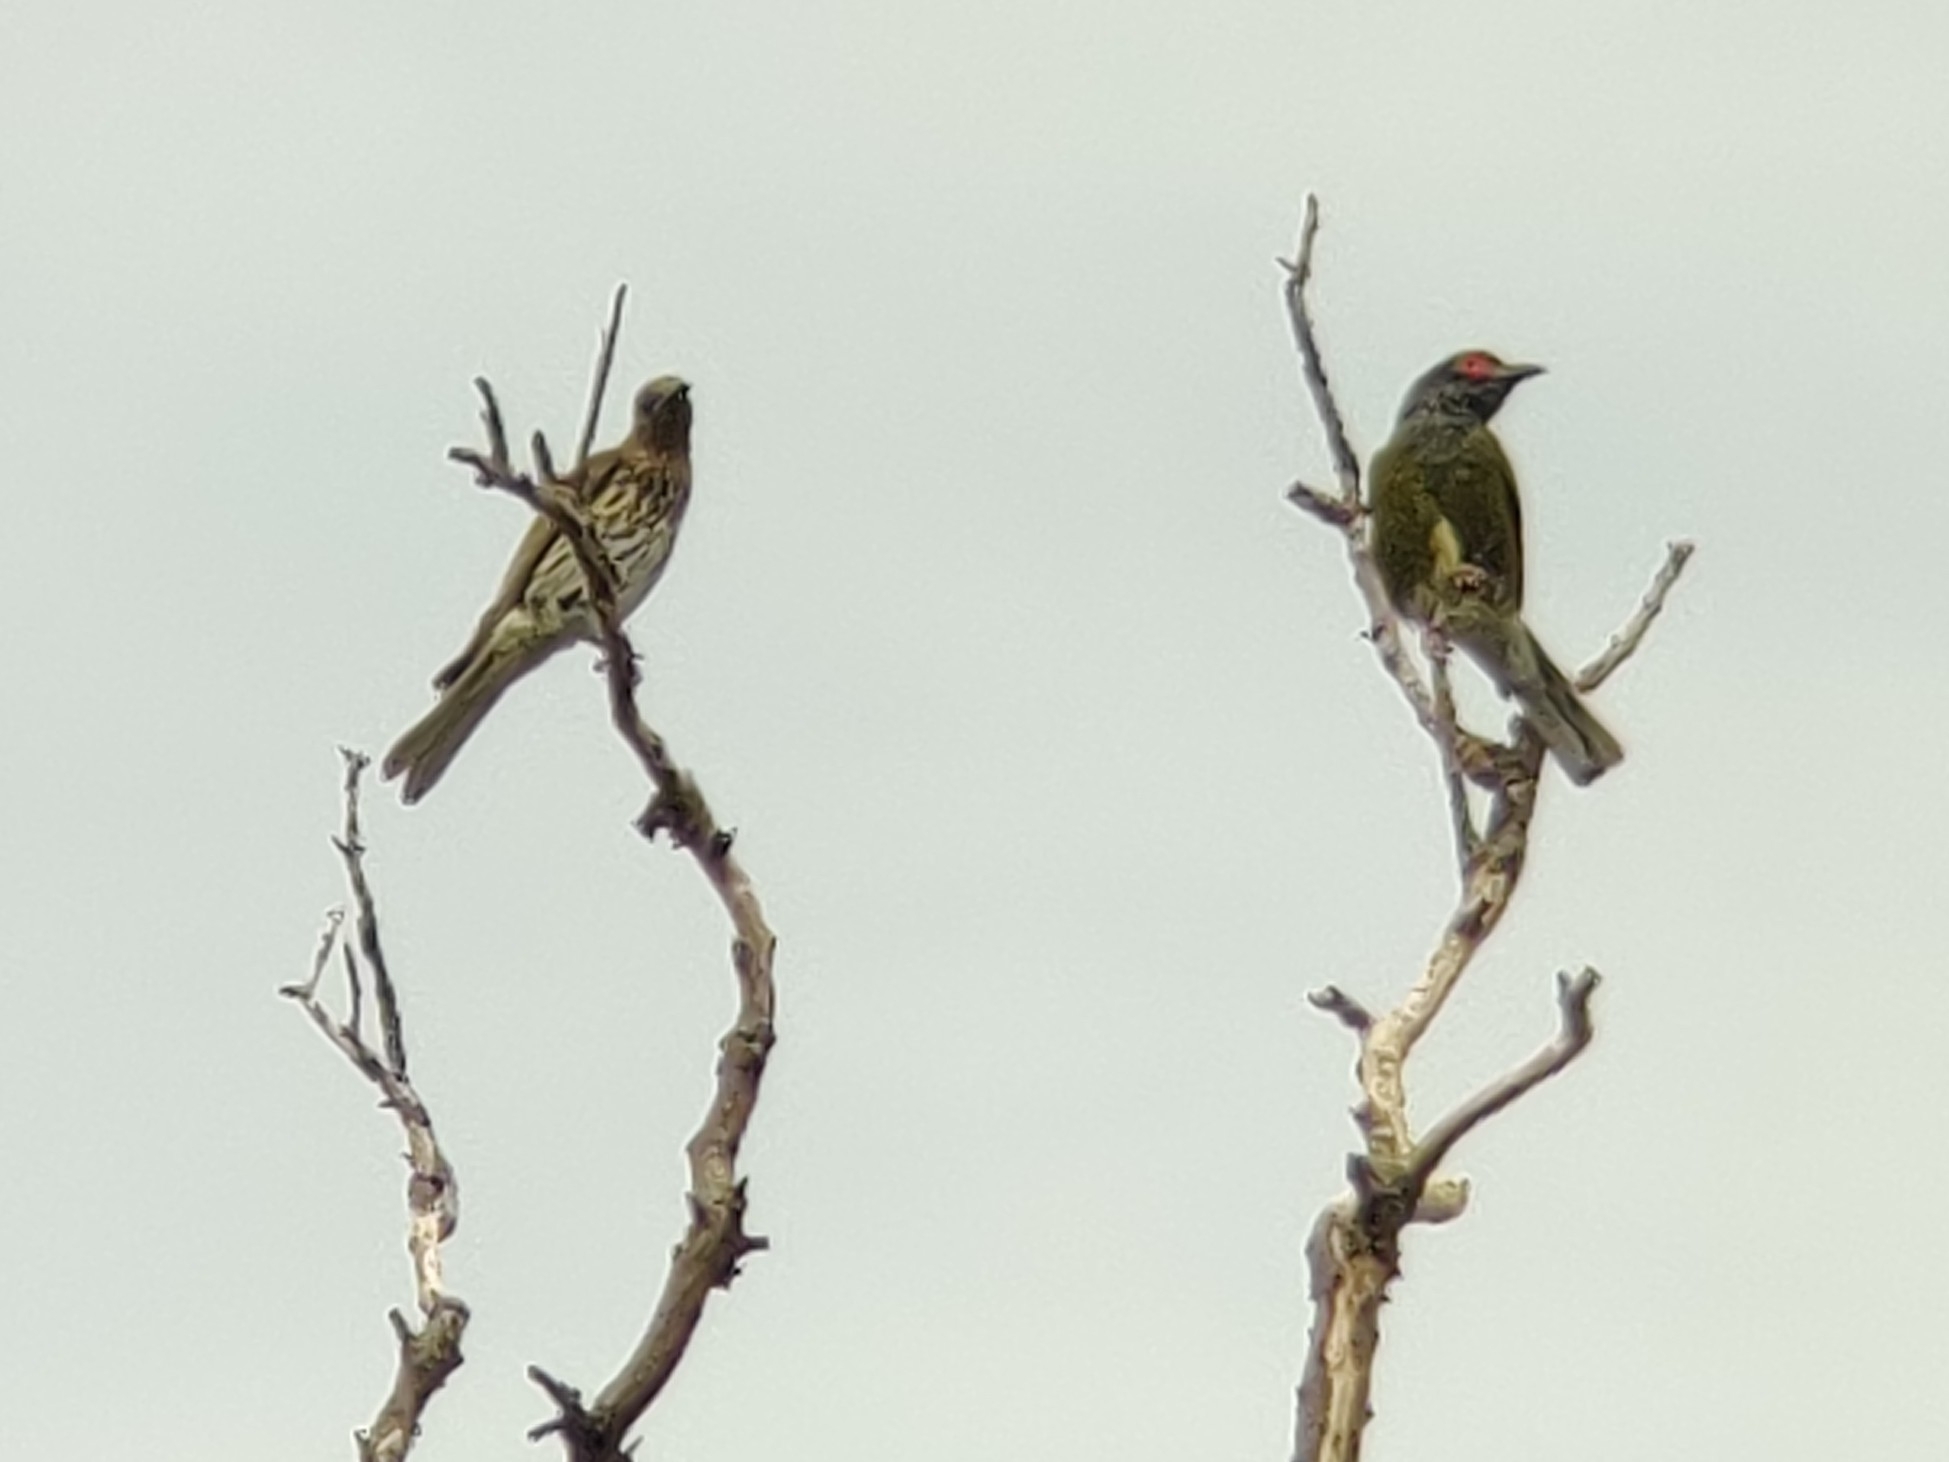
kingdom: Animalia
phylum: Chordata
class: Aves
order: Passeriformes
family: Oriolidae
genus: Sphecotheres
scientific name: Sphecotheres vieilloti
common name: Australasian figbird
